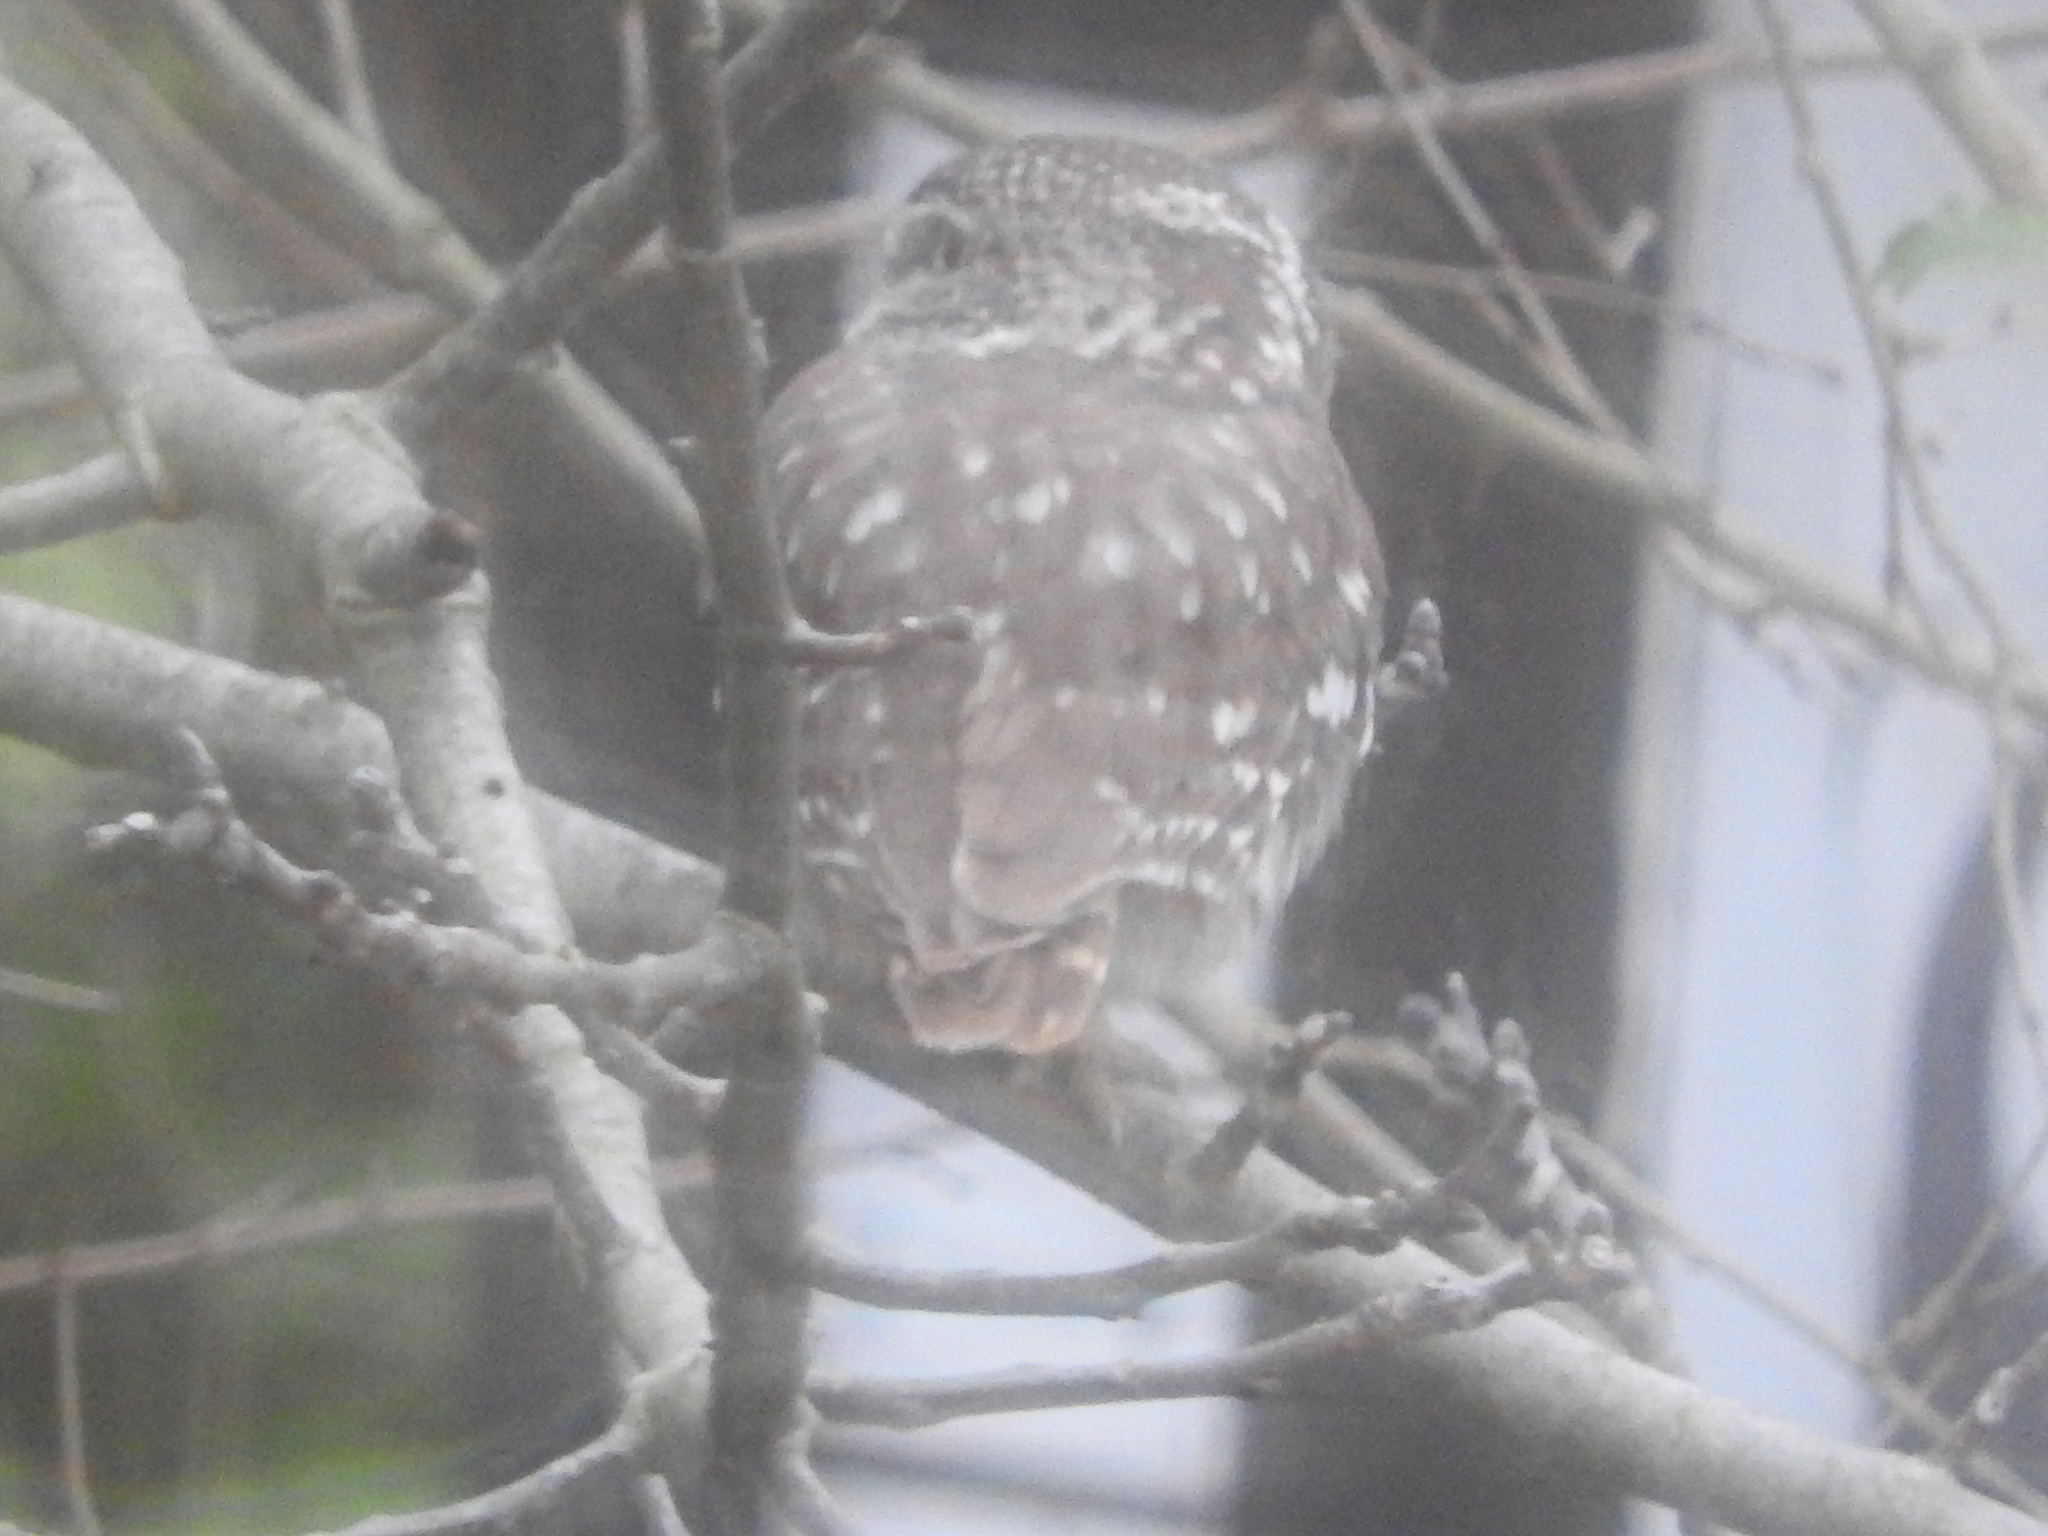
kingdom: Animalia
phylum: Chordata
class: Aves
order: Strigiformes
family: Strigidae
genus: Athene
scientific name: Athene noctua
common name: Little owl
